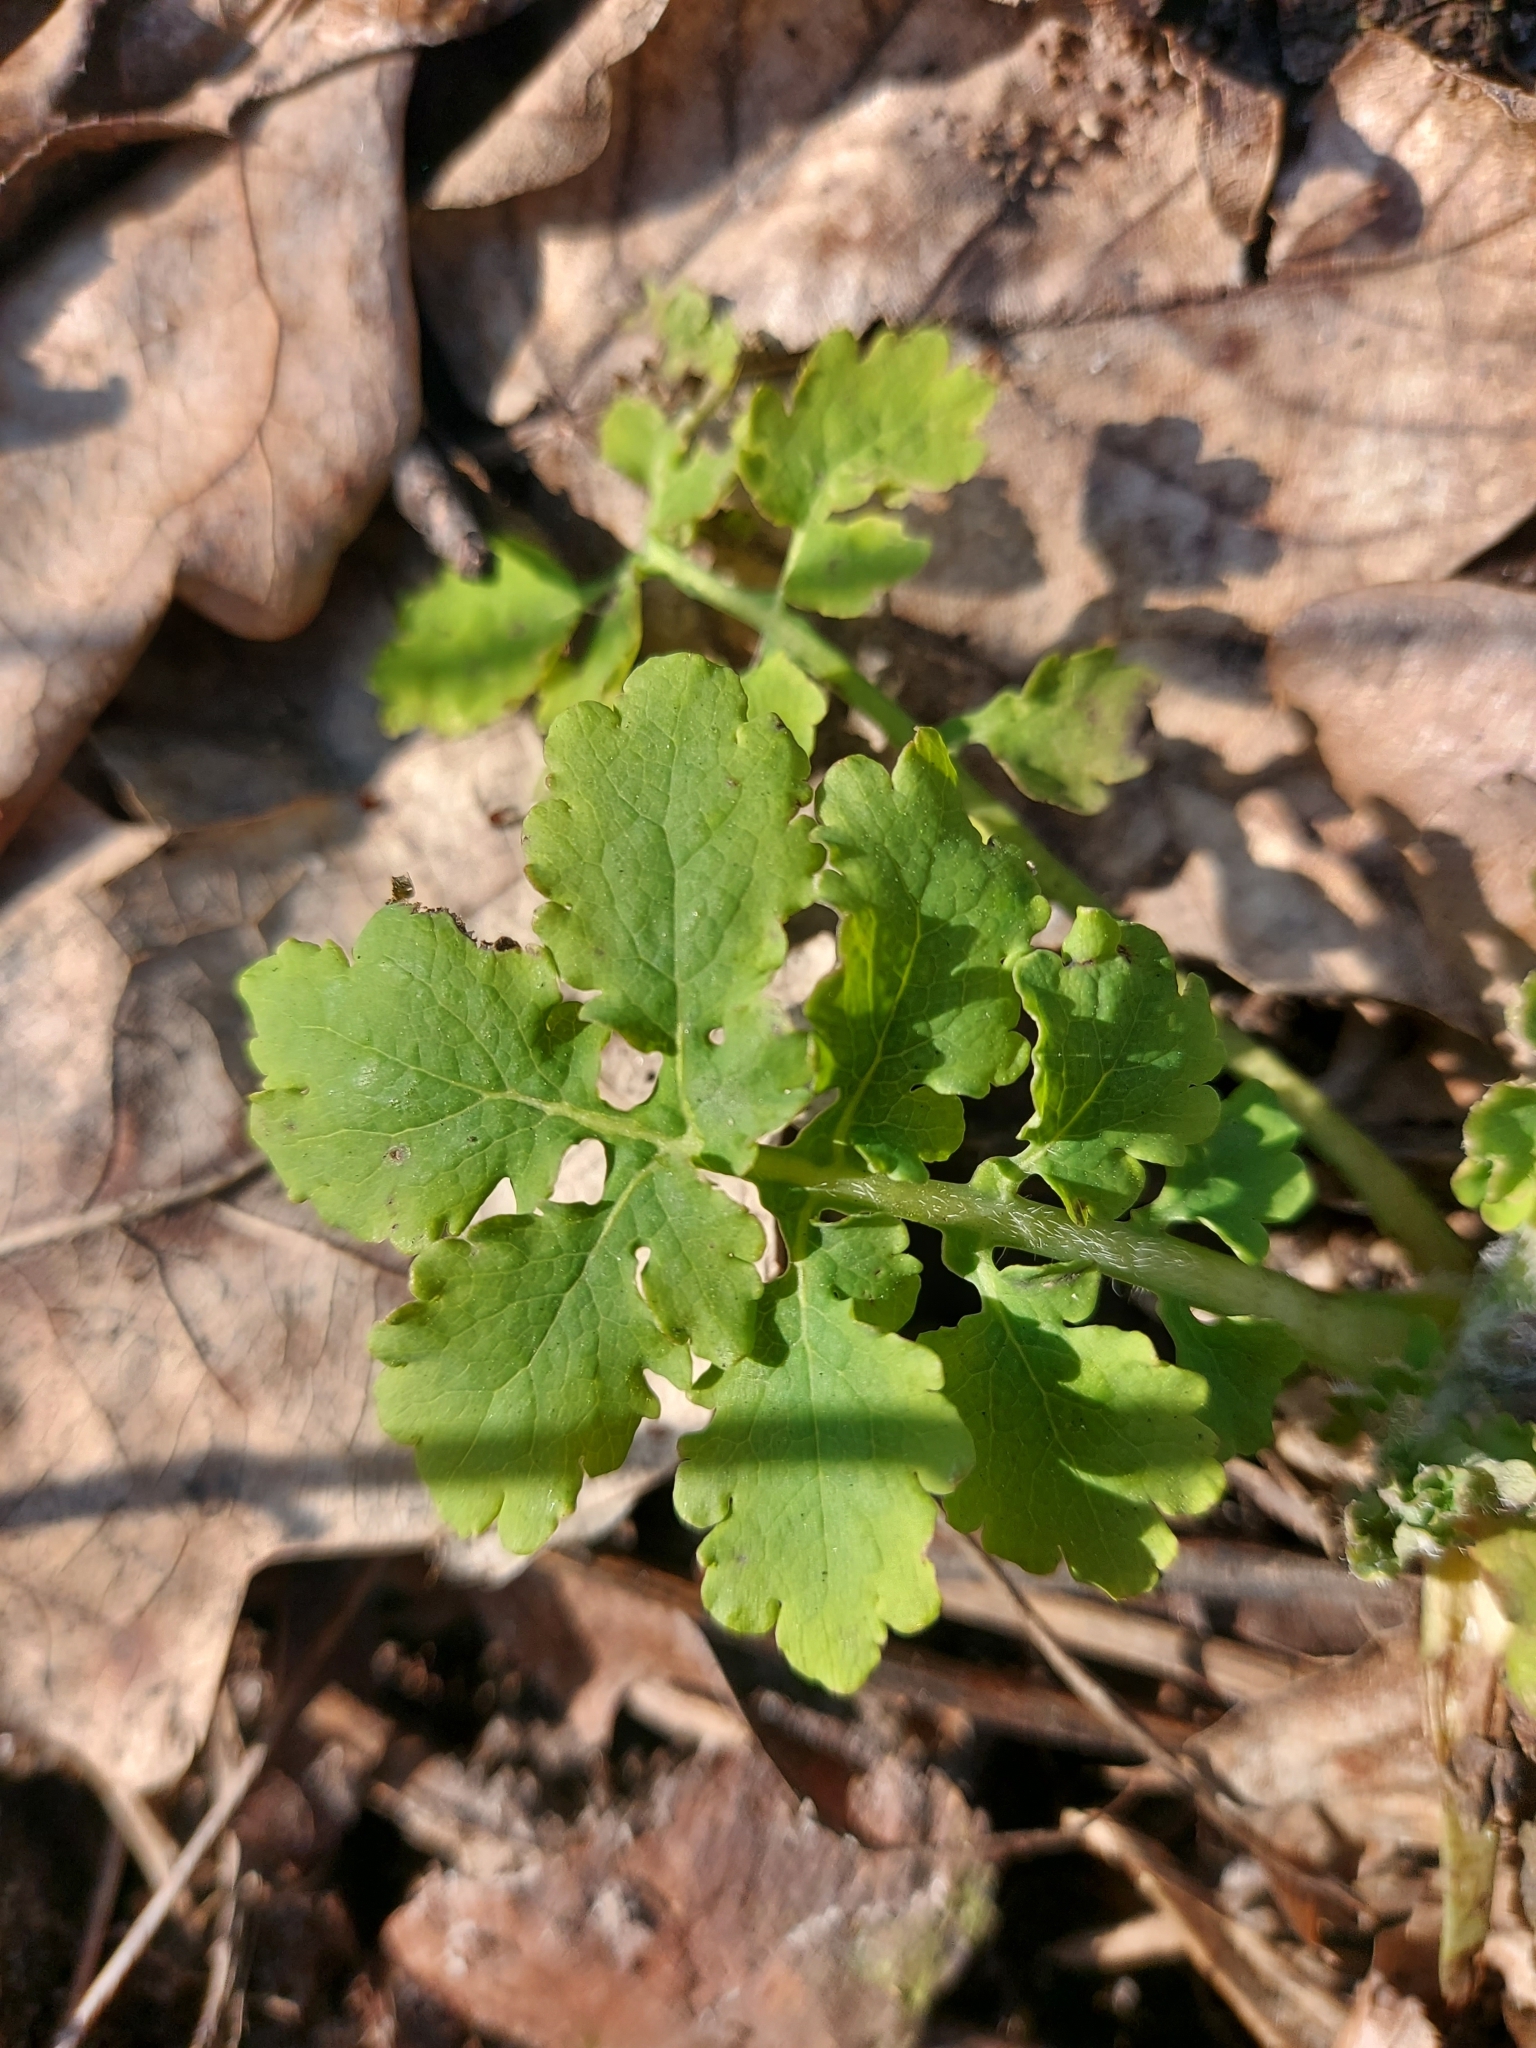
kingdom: Plantae
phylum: Tracheophyta
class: Magnoliopsida
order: Ranunculales
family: Papaveraceae
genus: Chelidonium
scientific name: Chelidonium majus
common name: Greater celandine
